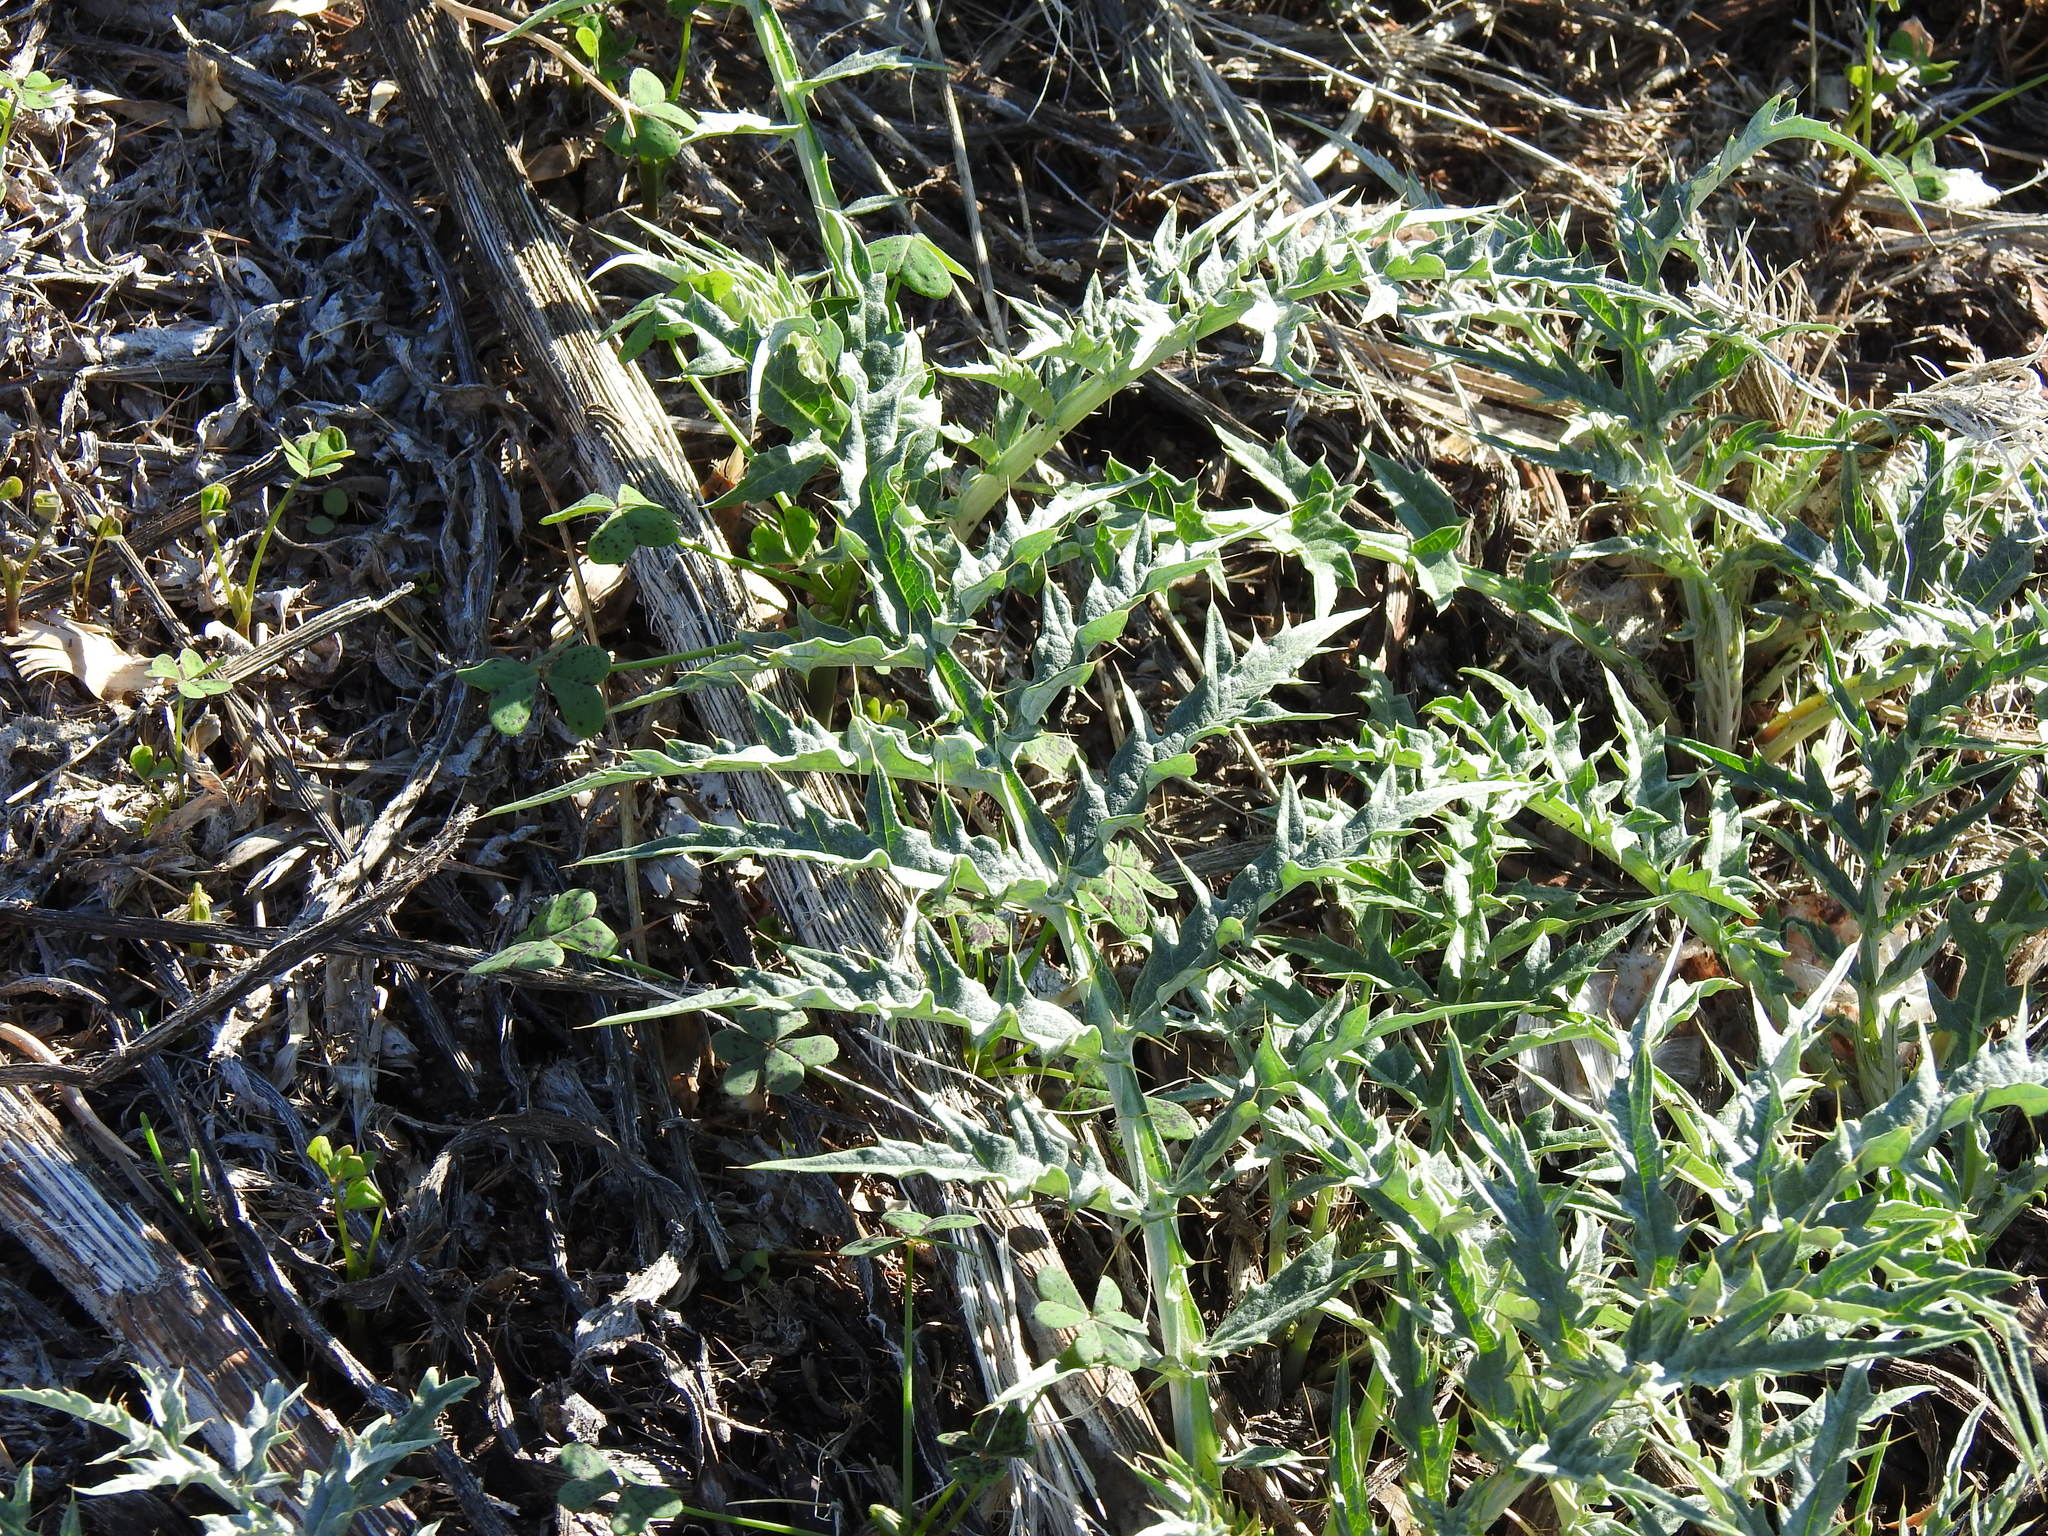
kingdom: Plantae
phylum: Tracheophyta
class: Magnoliopsida
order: Asterales
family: Asteraceae
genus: Cynara
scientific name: Cynara cardunculus
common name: Globe artichoke
